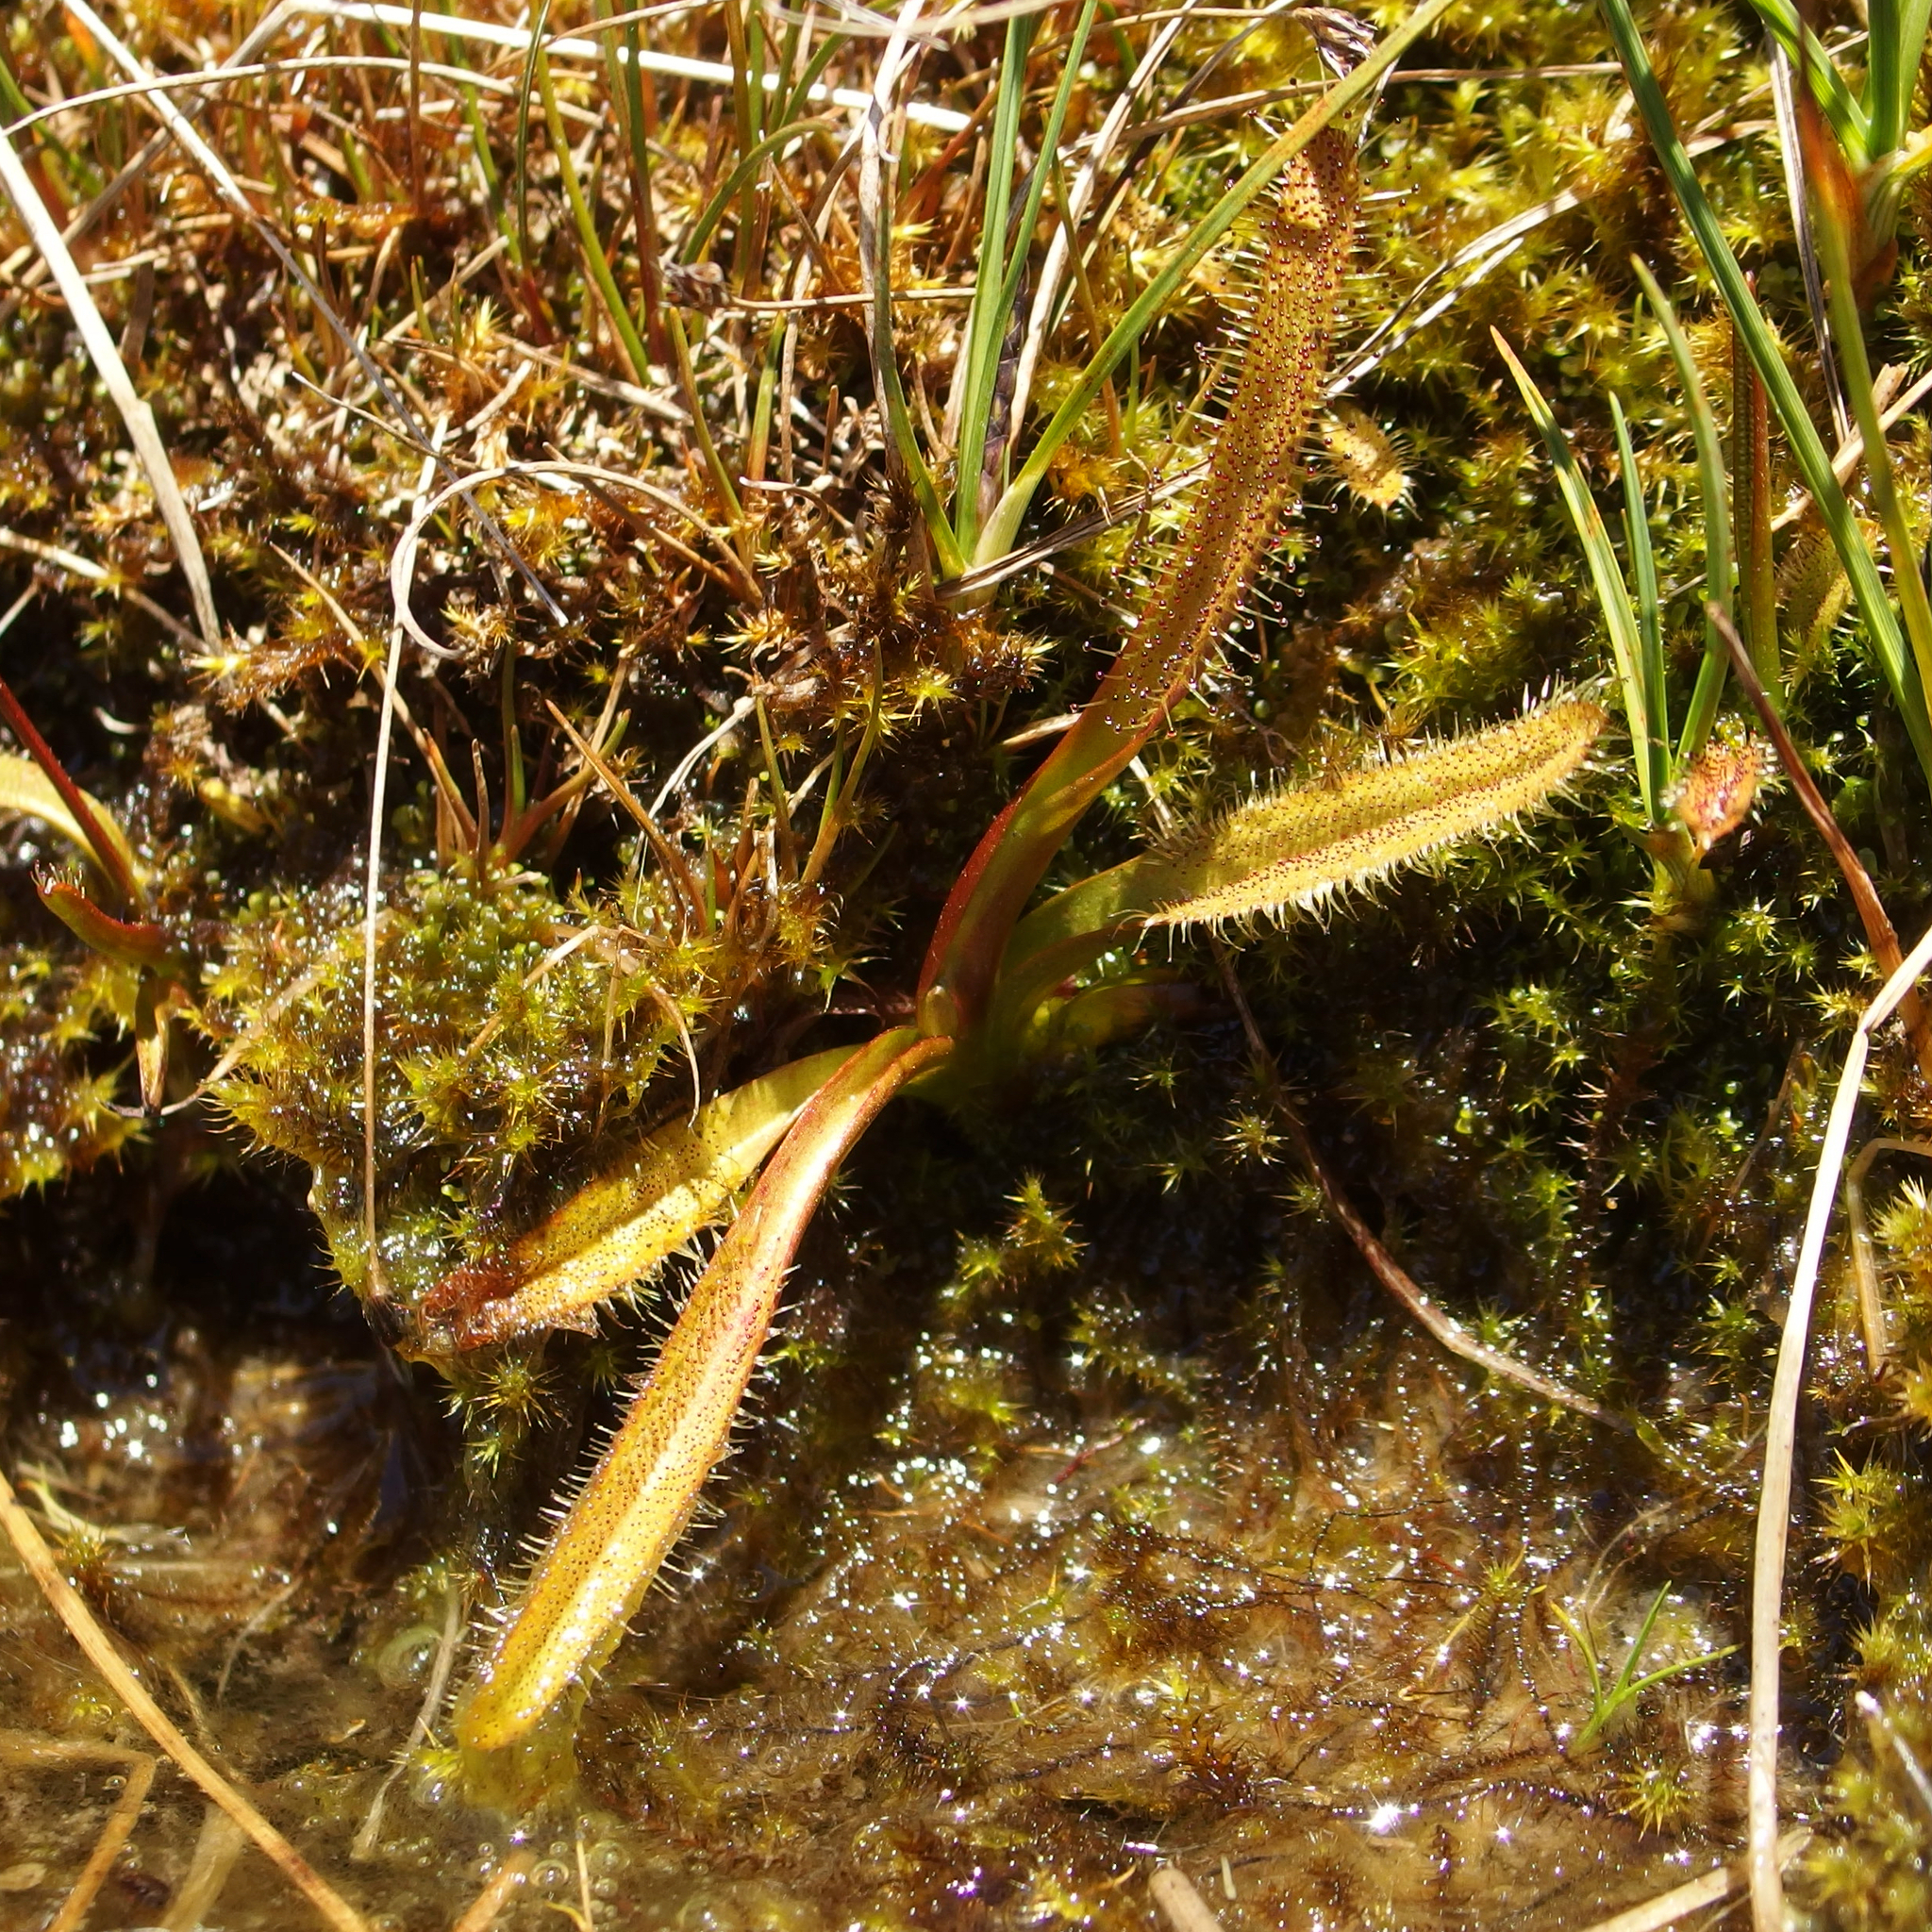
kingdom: Plantae
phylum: Tracheophyta
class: Magnoliopsida
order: Caryophyllales
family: Droseraceae
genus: Drosera
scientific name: Drosera arcturi
